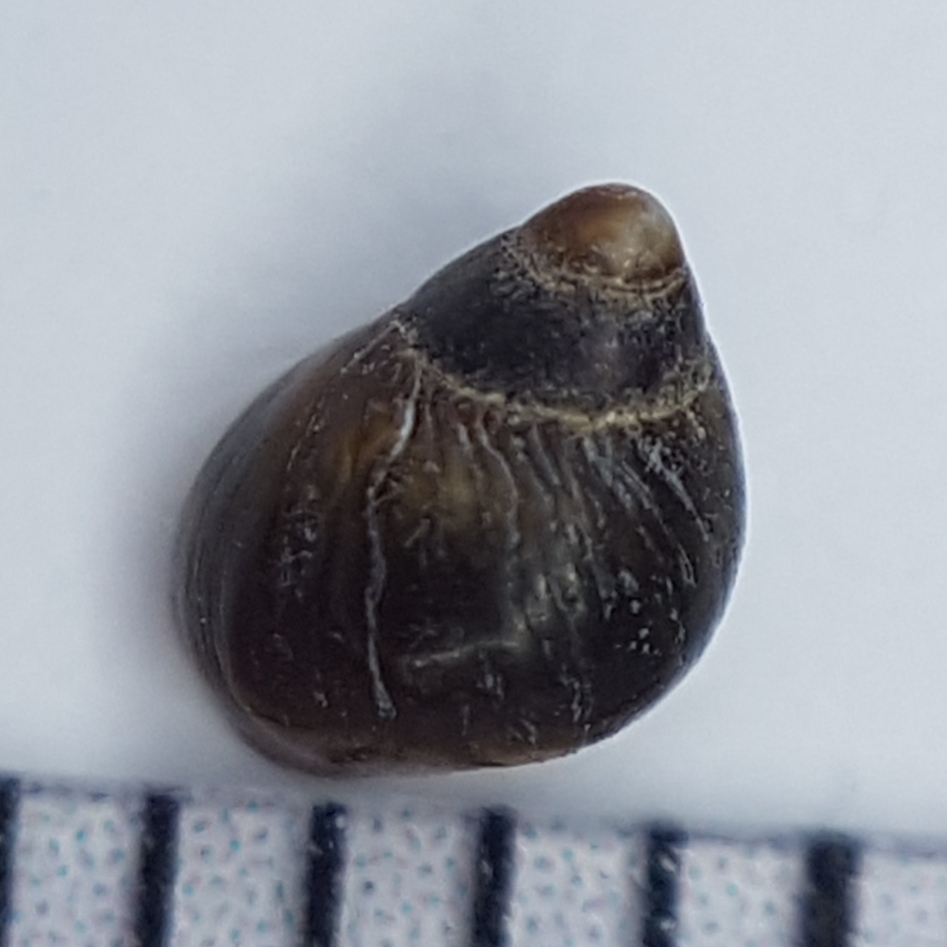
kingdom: Animalia
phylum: Mollusca
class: Gastropoda
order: Littorinimorpha
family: Littorinidae
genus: Melarhaphe
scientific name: Melarhaphe neritoides
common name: Small periwinkle
